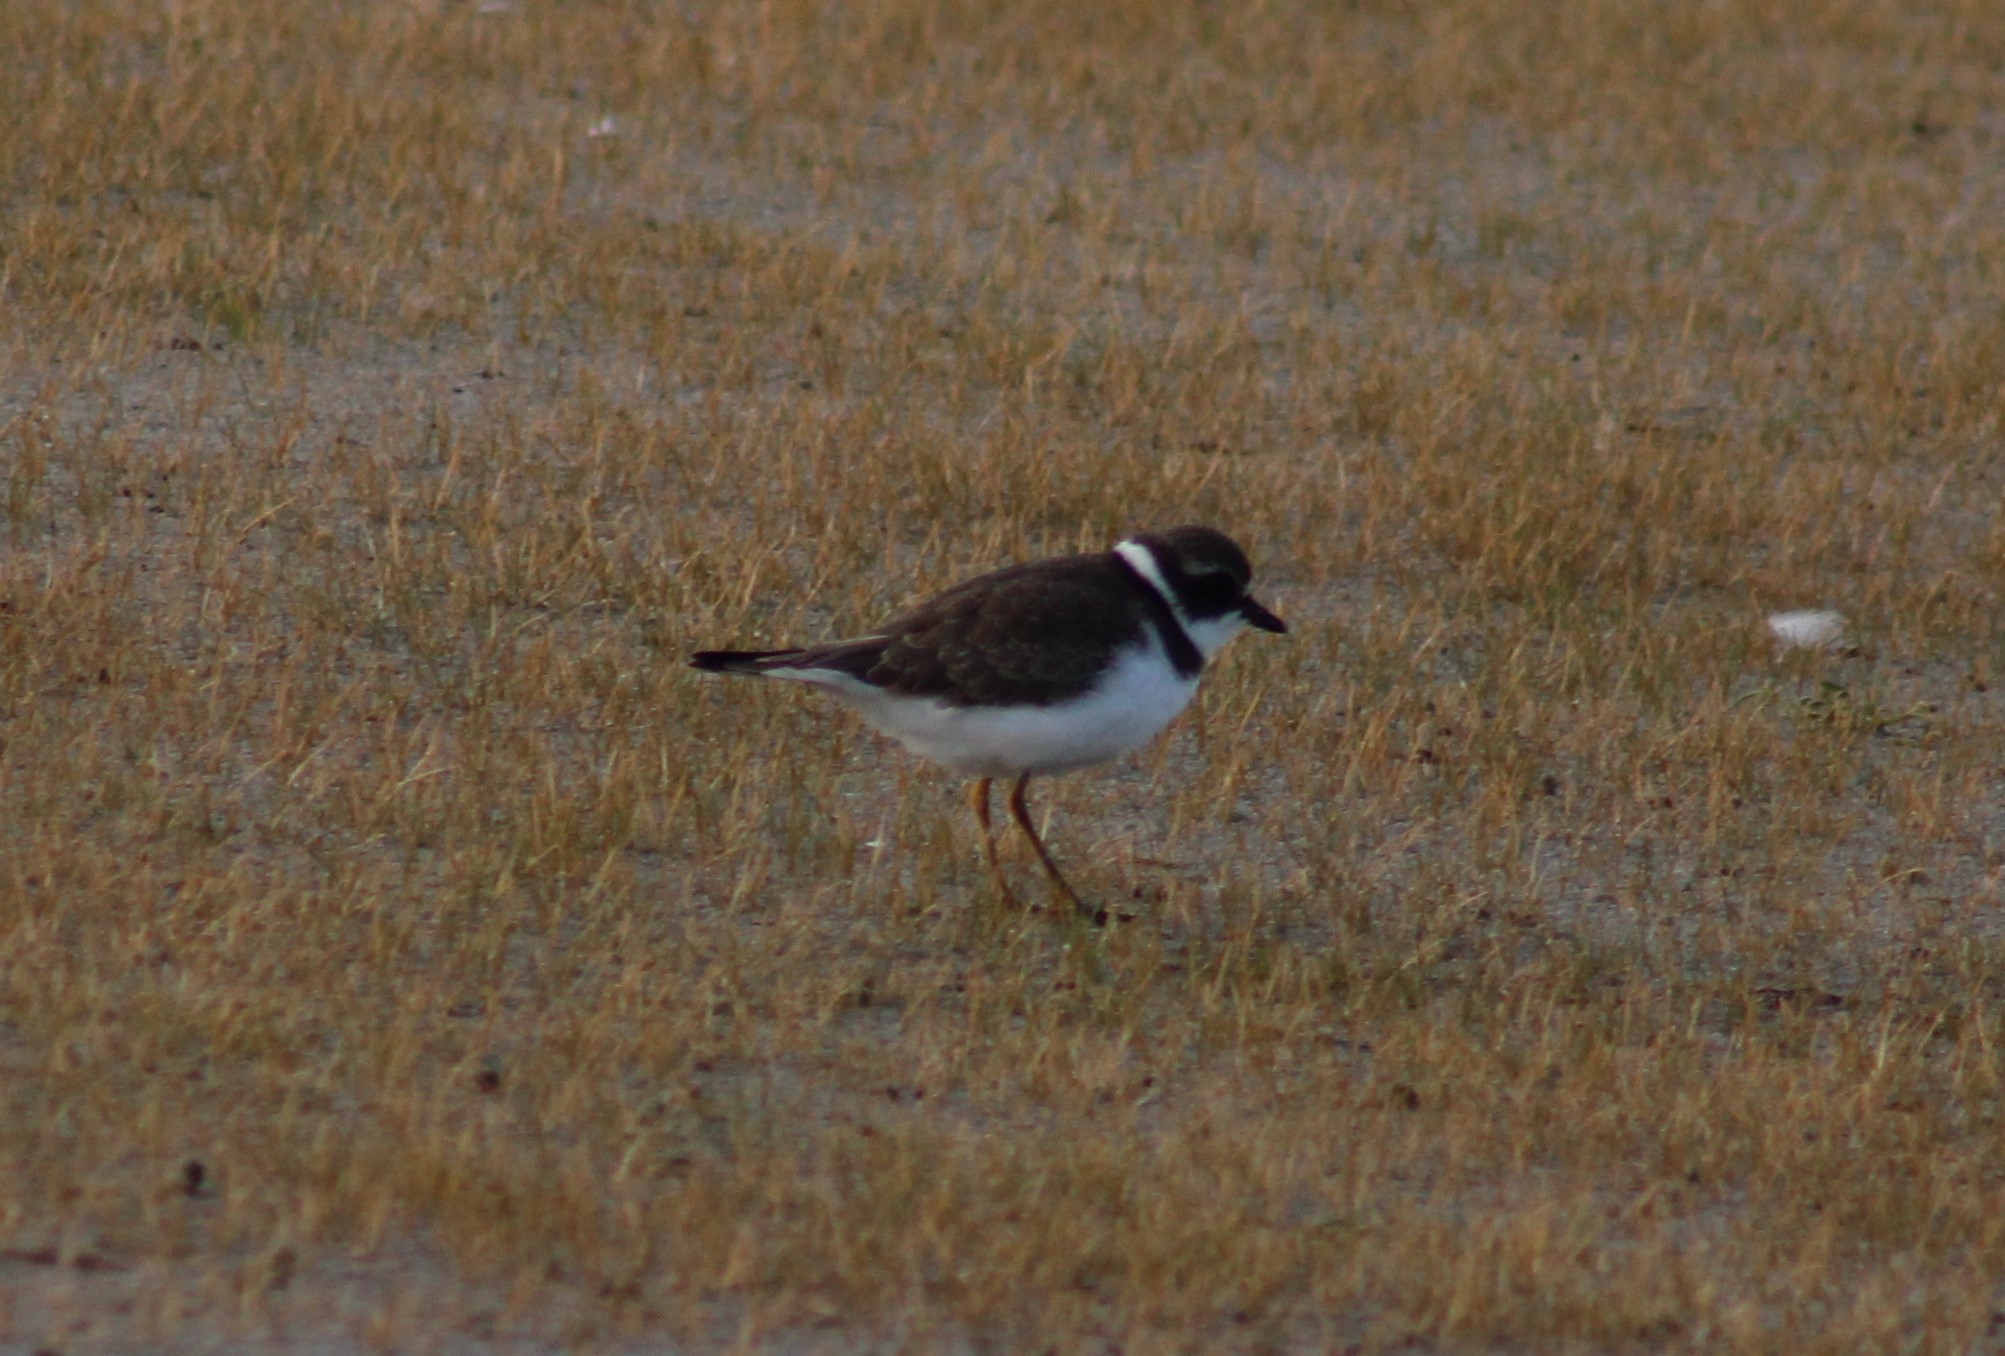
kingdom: Animalia
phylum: Chordata
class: Aves
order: Charadriiformes
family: Charadriidae
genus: Charadrius
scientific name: Charadrius semipalmatus
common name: Semipalmated plover
